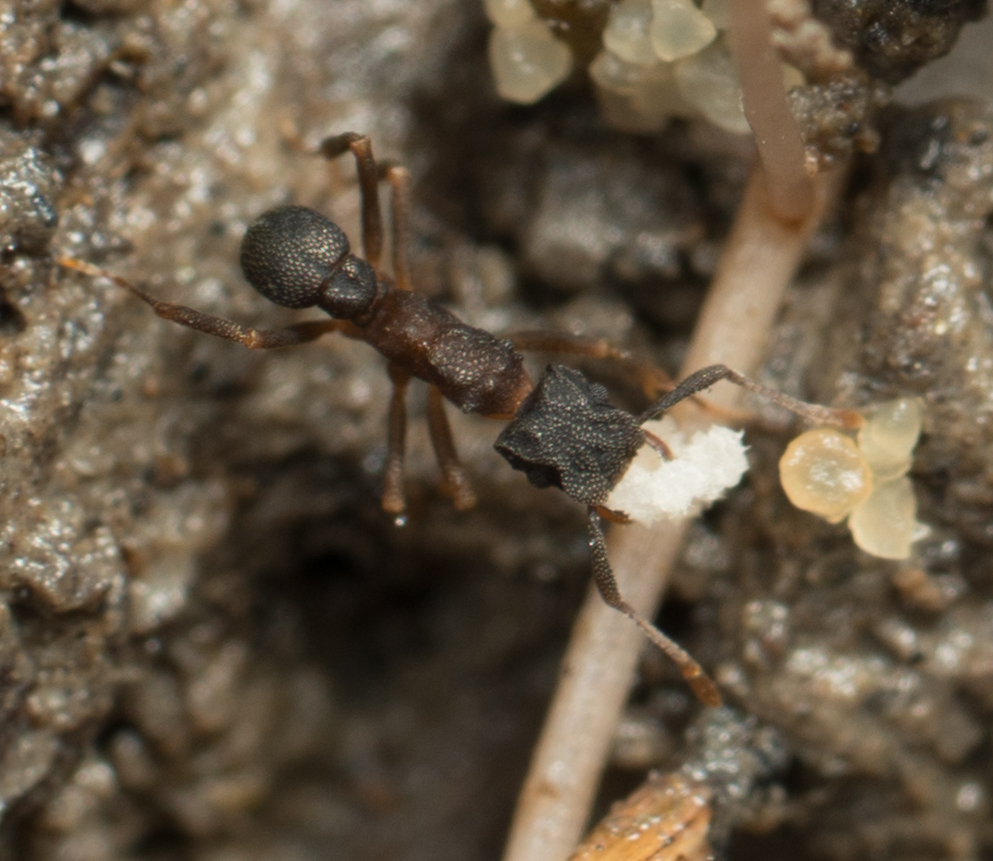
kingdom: Animalia
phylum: Arthropoda
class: Insecta
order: Hymenoptera
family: Formicidae
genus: Cyphomyrmex
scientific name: Cyphomyrmex rimosus
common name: Rimose fungus ant
